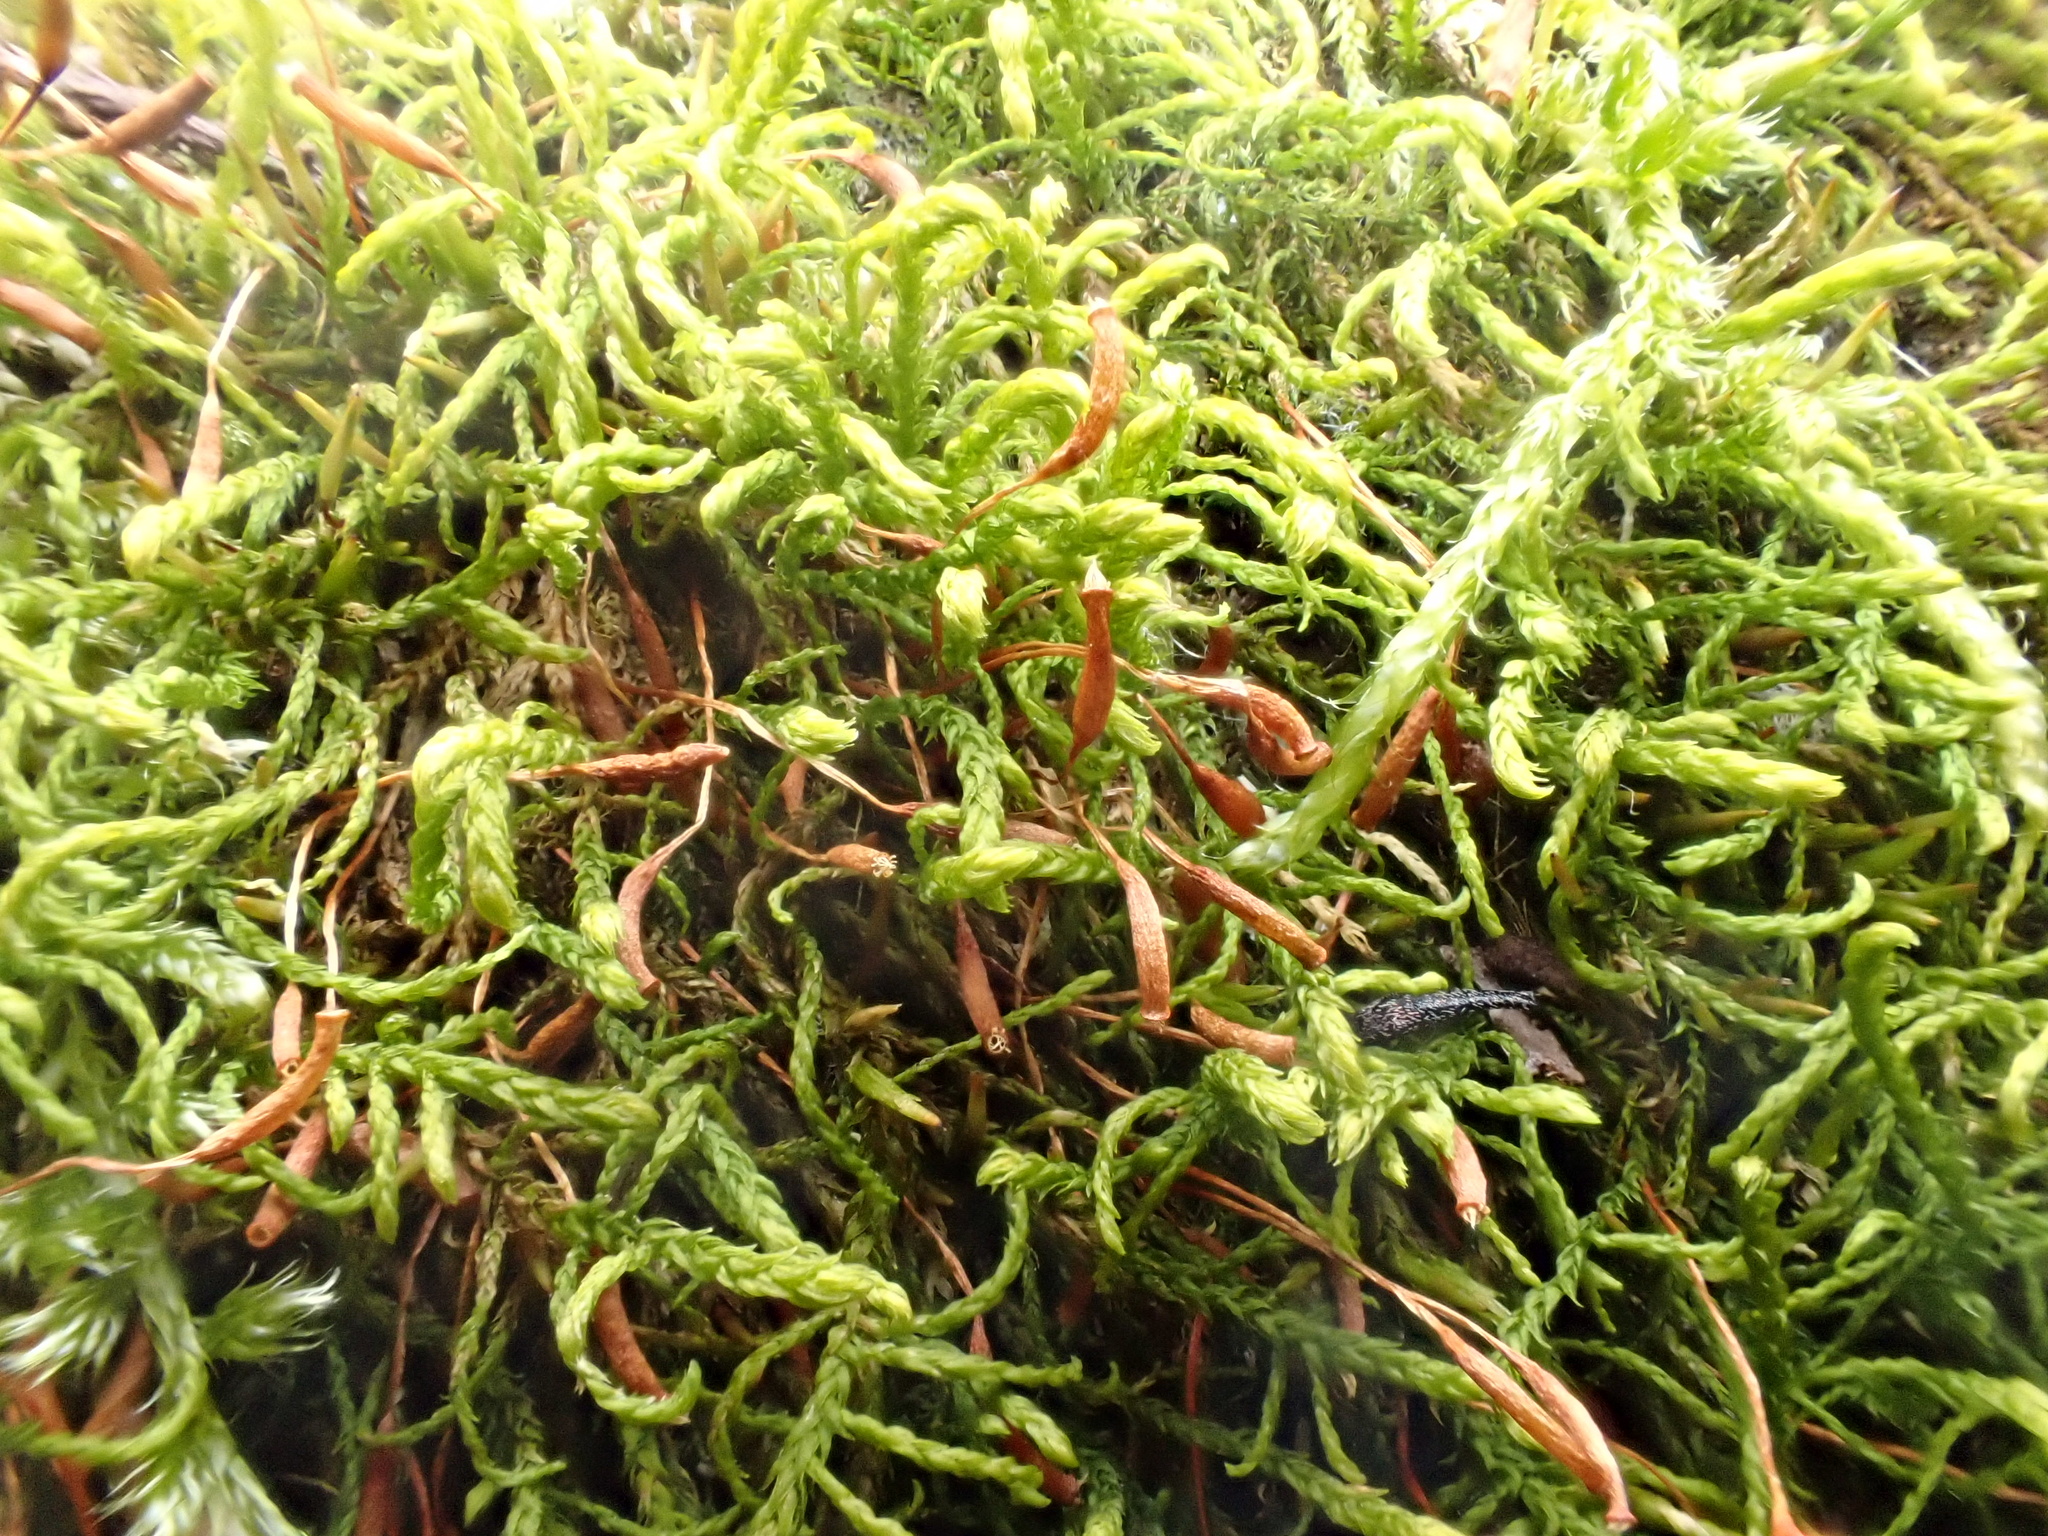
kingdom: Plantae
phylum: Bryophyta
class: Bryopsida
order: Hypnales
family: Leskeaceae
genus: Leskea
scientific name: Leskea polycarpa
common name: Many-fruited leske's moss
